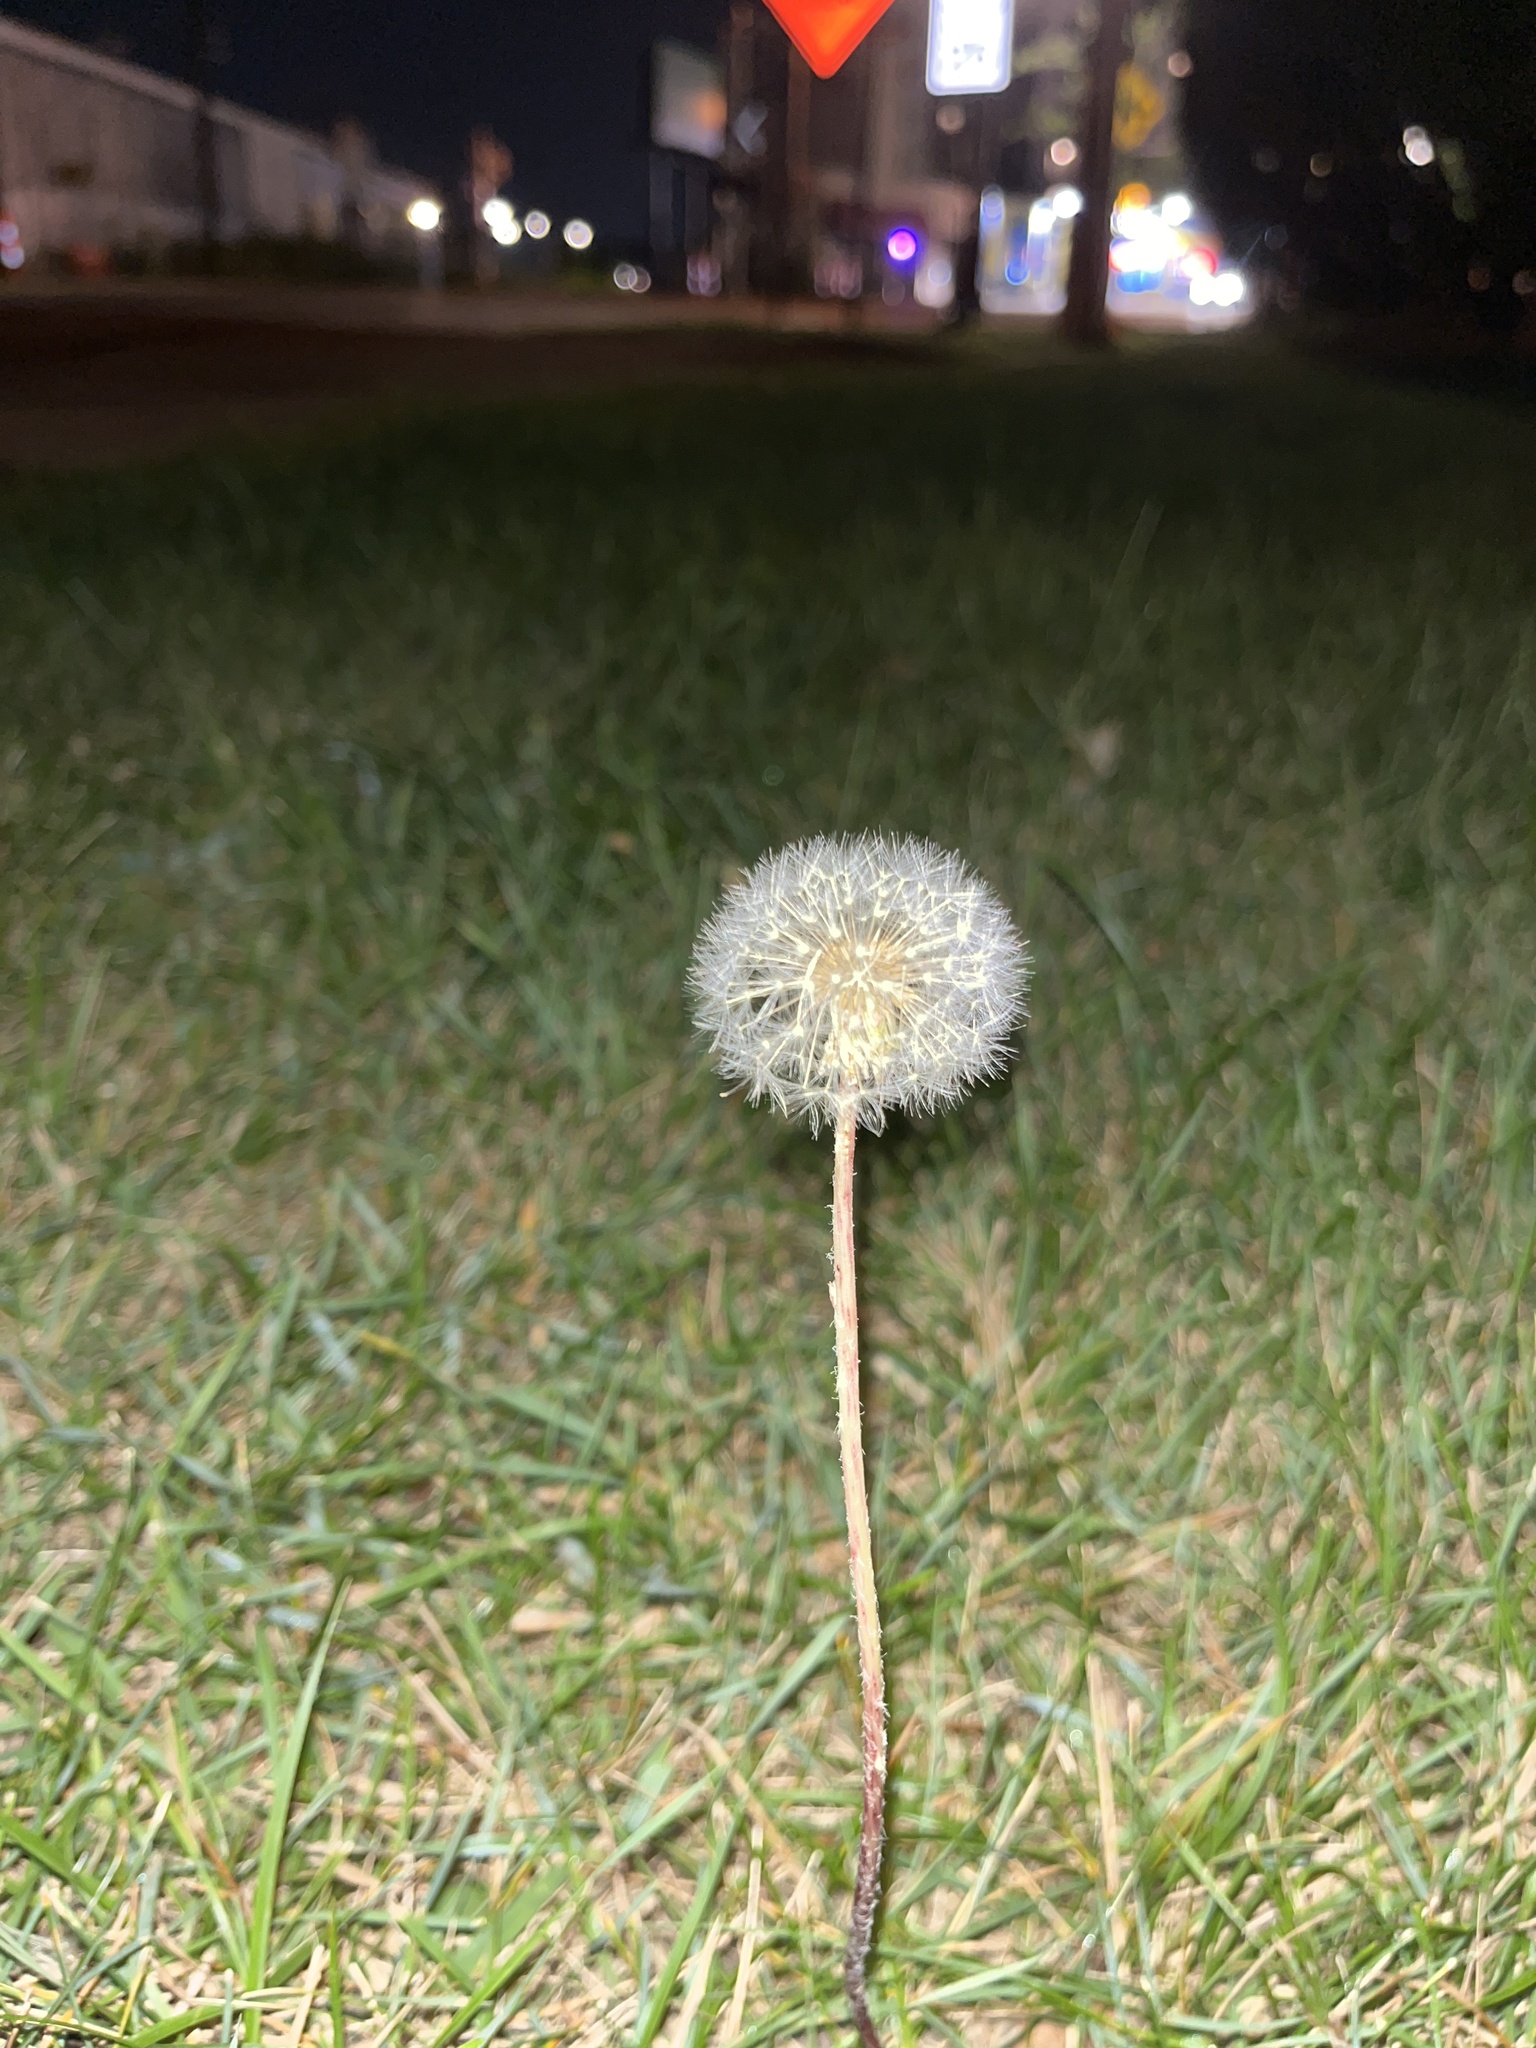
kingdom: Plantae
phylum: Tracheophyta
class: Magnoliopsida
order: Asterales
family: Asteraceae
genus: Taraxacum
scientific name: Taraxacum officinale
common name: Common dandelion
